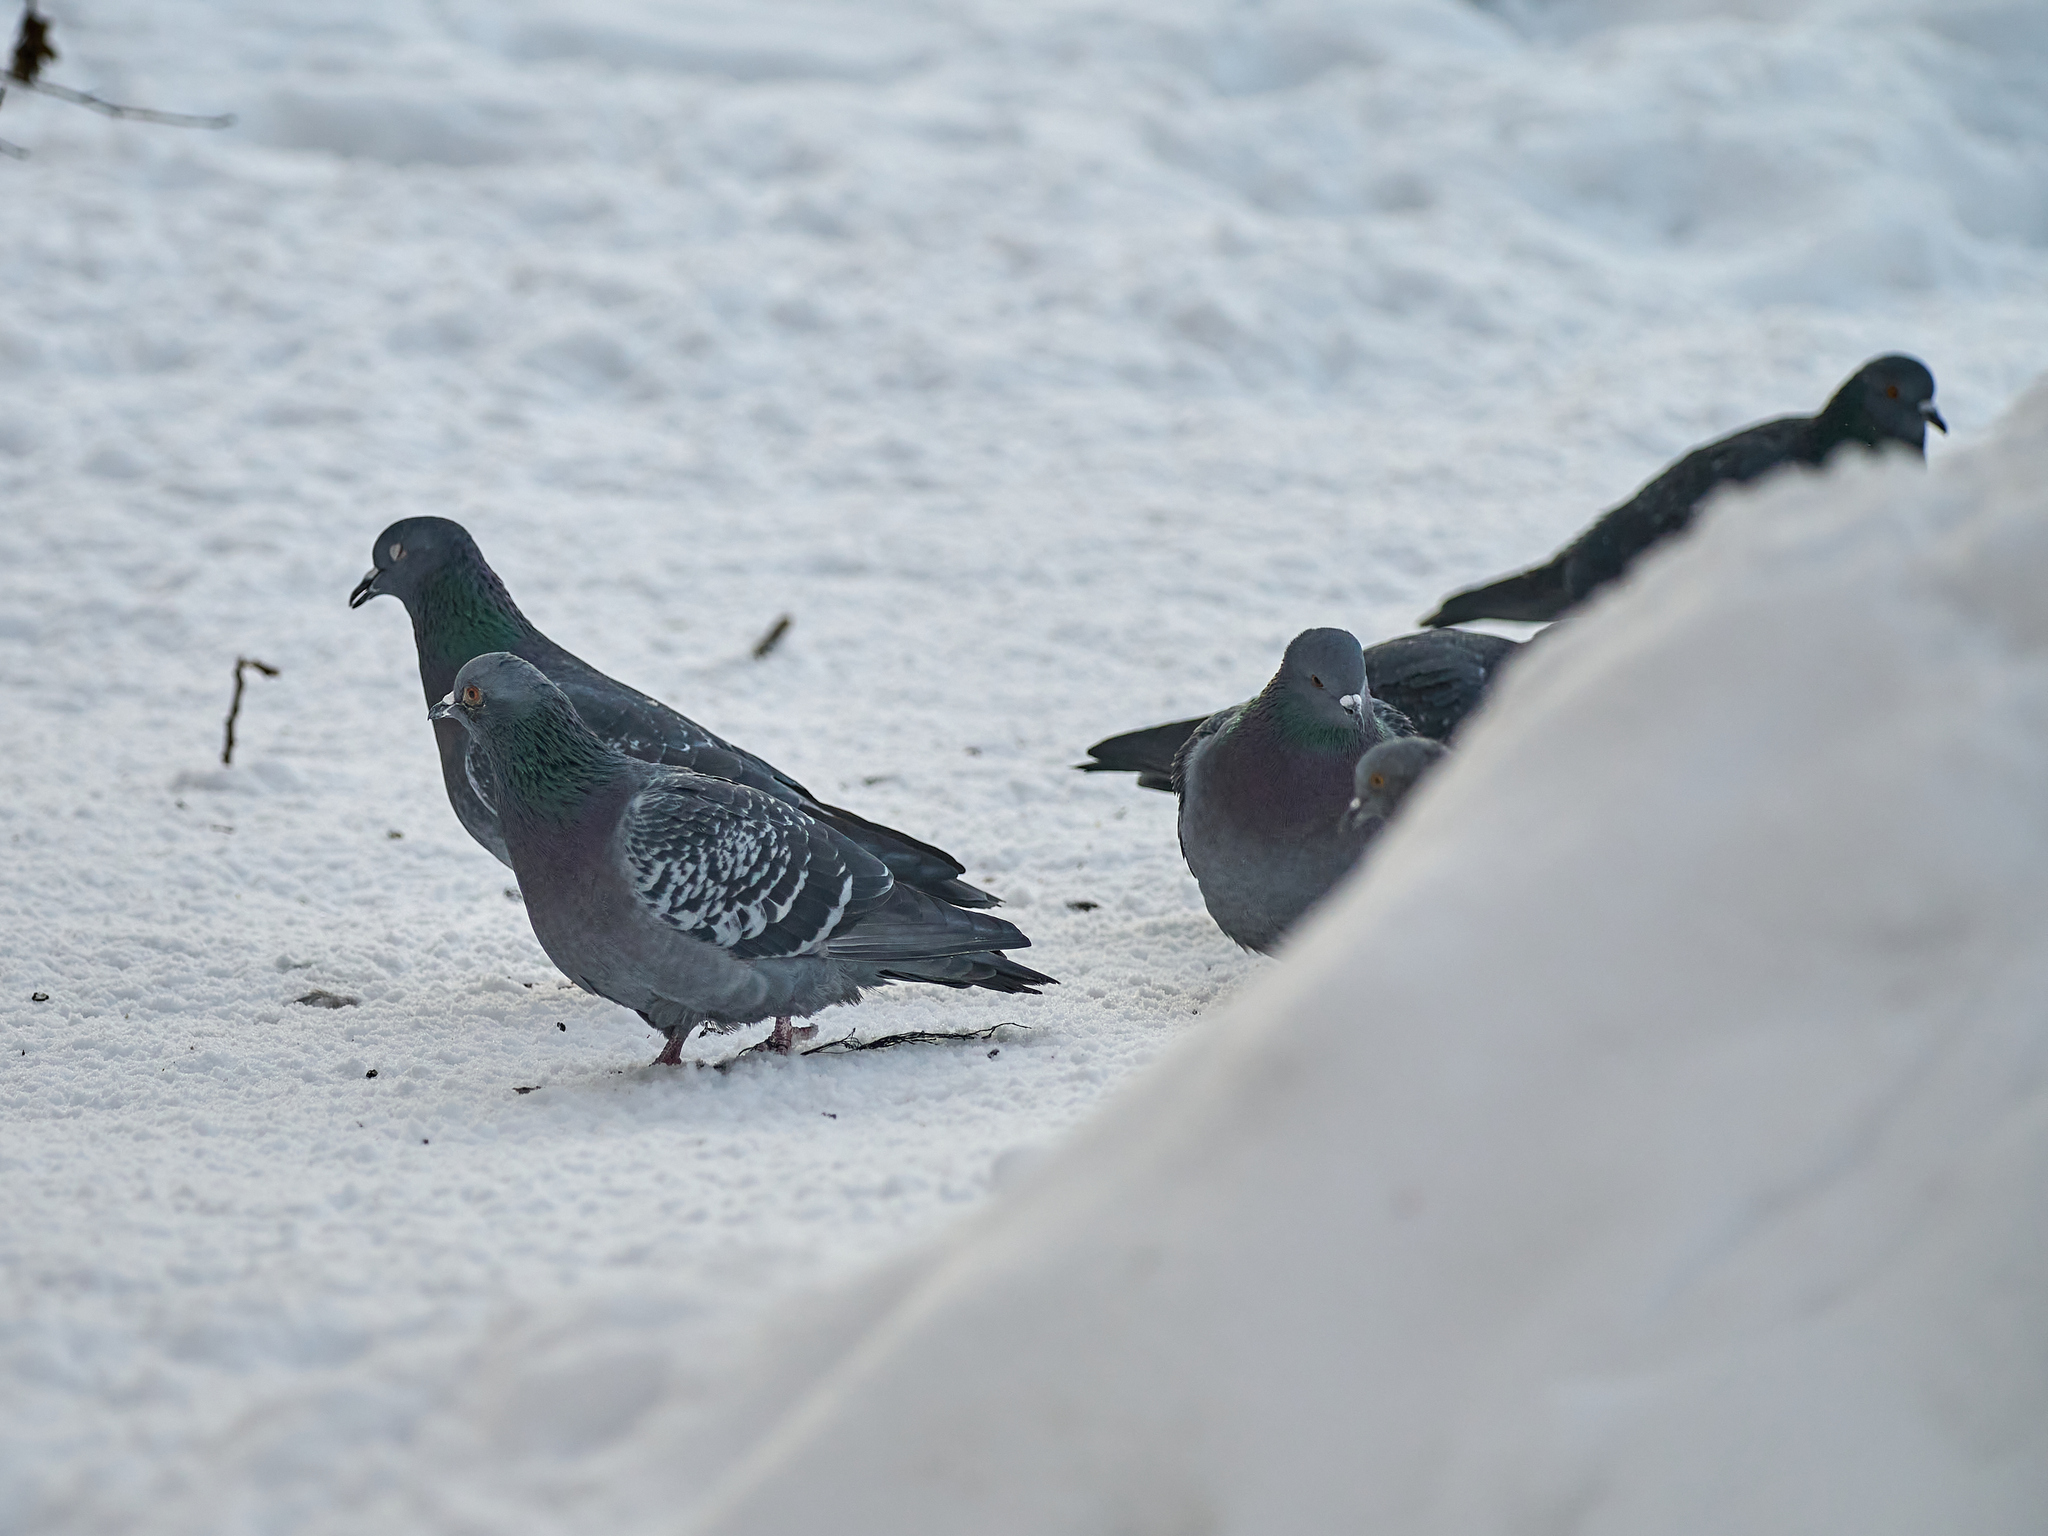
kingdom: Animalia
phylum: Chordata
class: Aves
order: Columbiformes
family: Columbidae
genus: Columba
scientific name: Columba livia
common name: Rock pigeon
